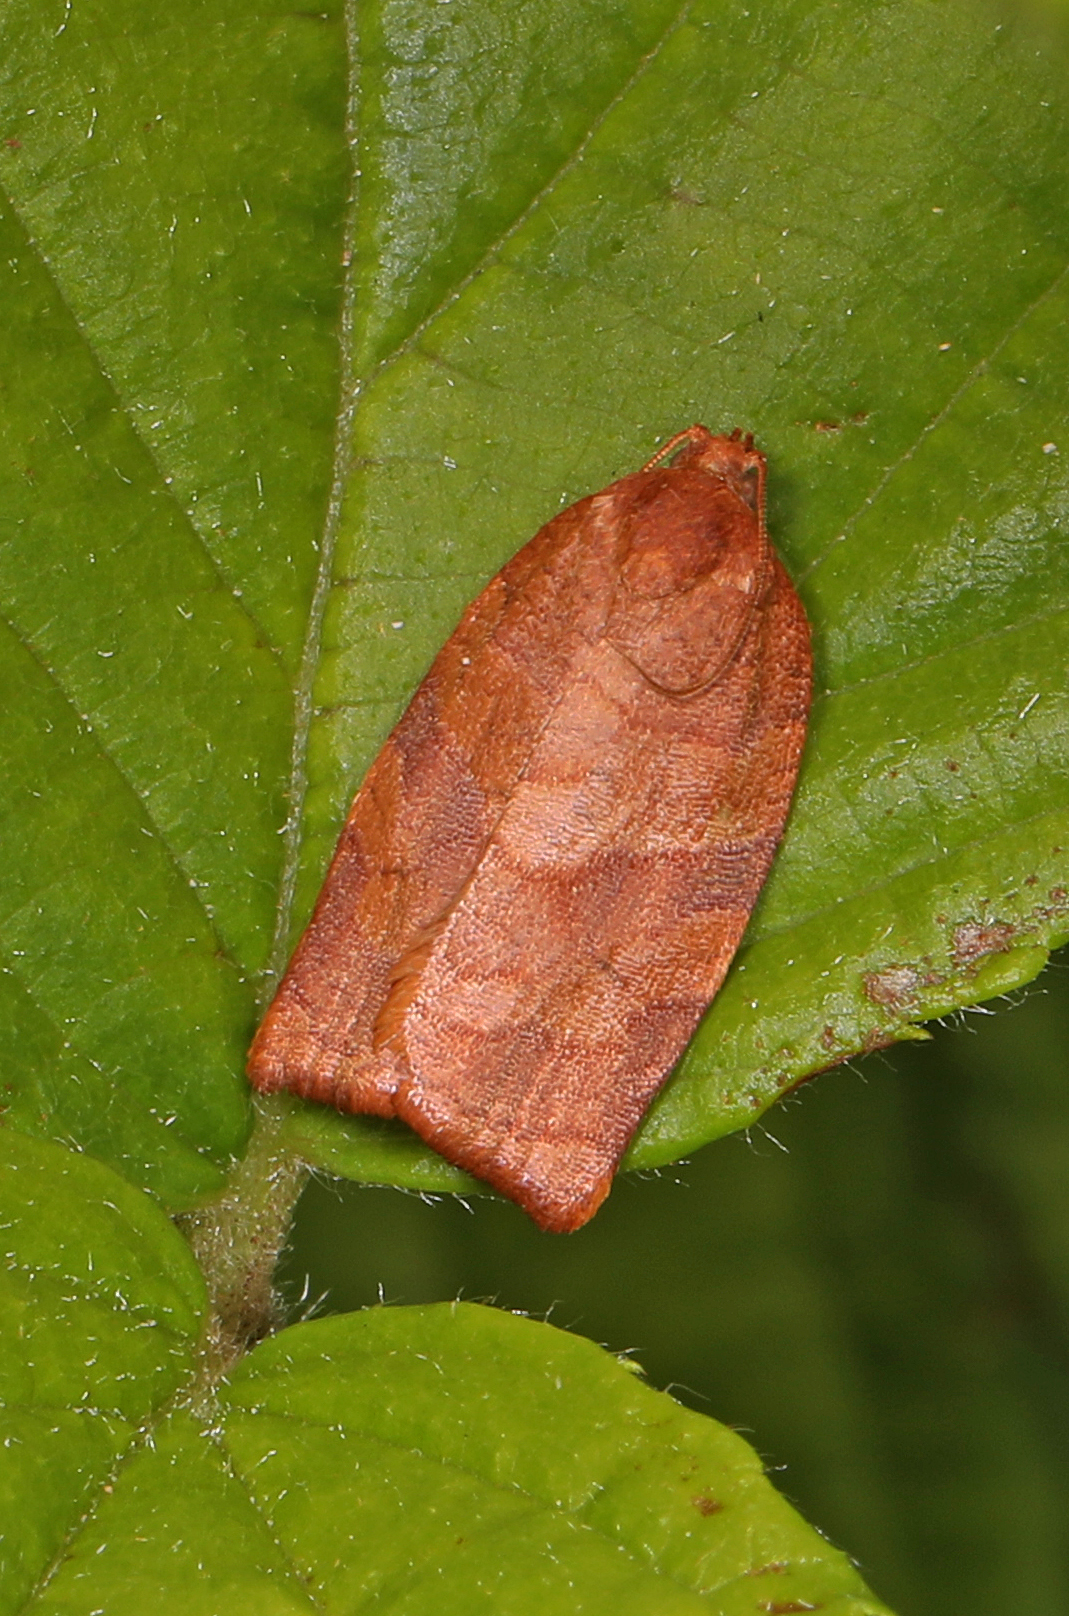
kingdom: Animalia
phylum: Arthropoda
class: Insecta
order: Lepidoptera
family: Tortricidae
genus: Choristoneura
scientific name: Choristoneura rosaceana
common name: Oblique-banded leafroller moth
